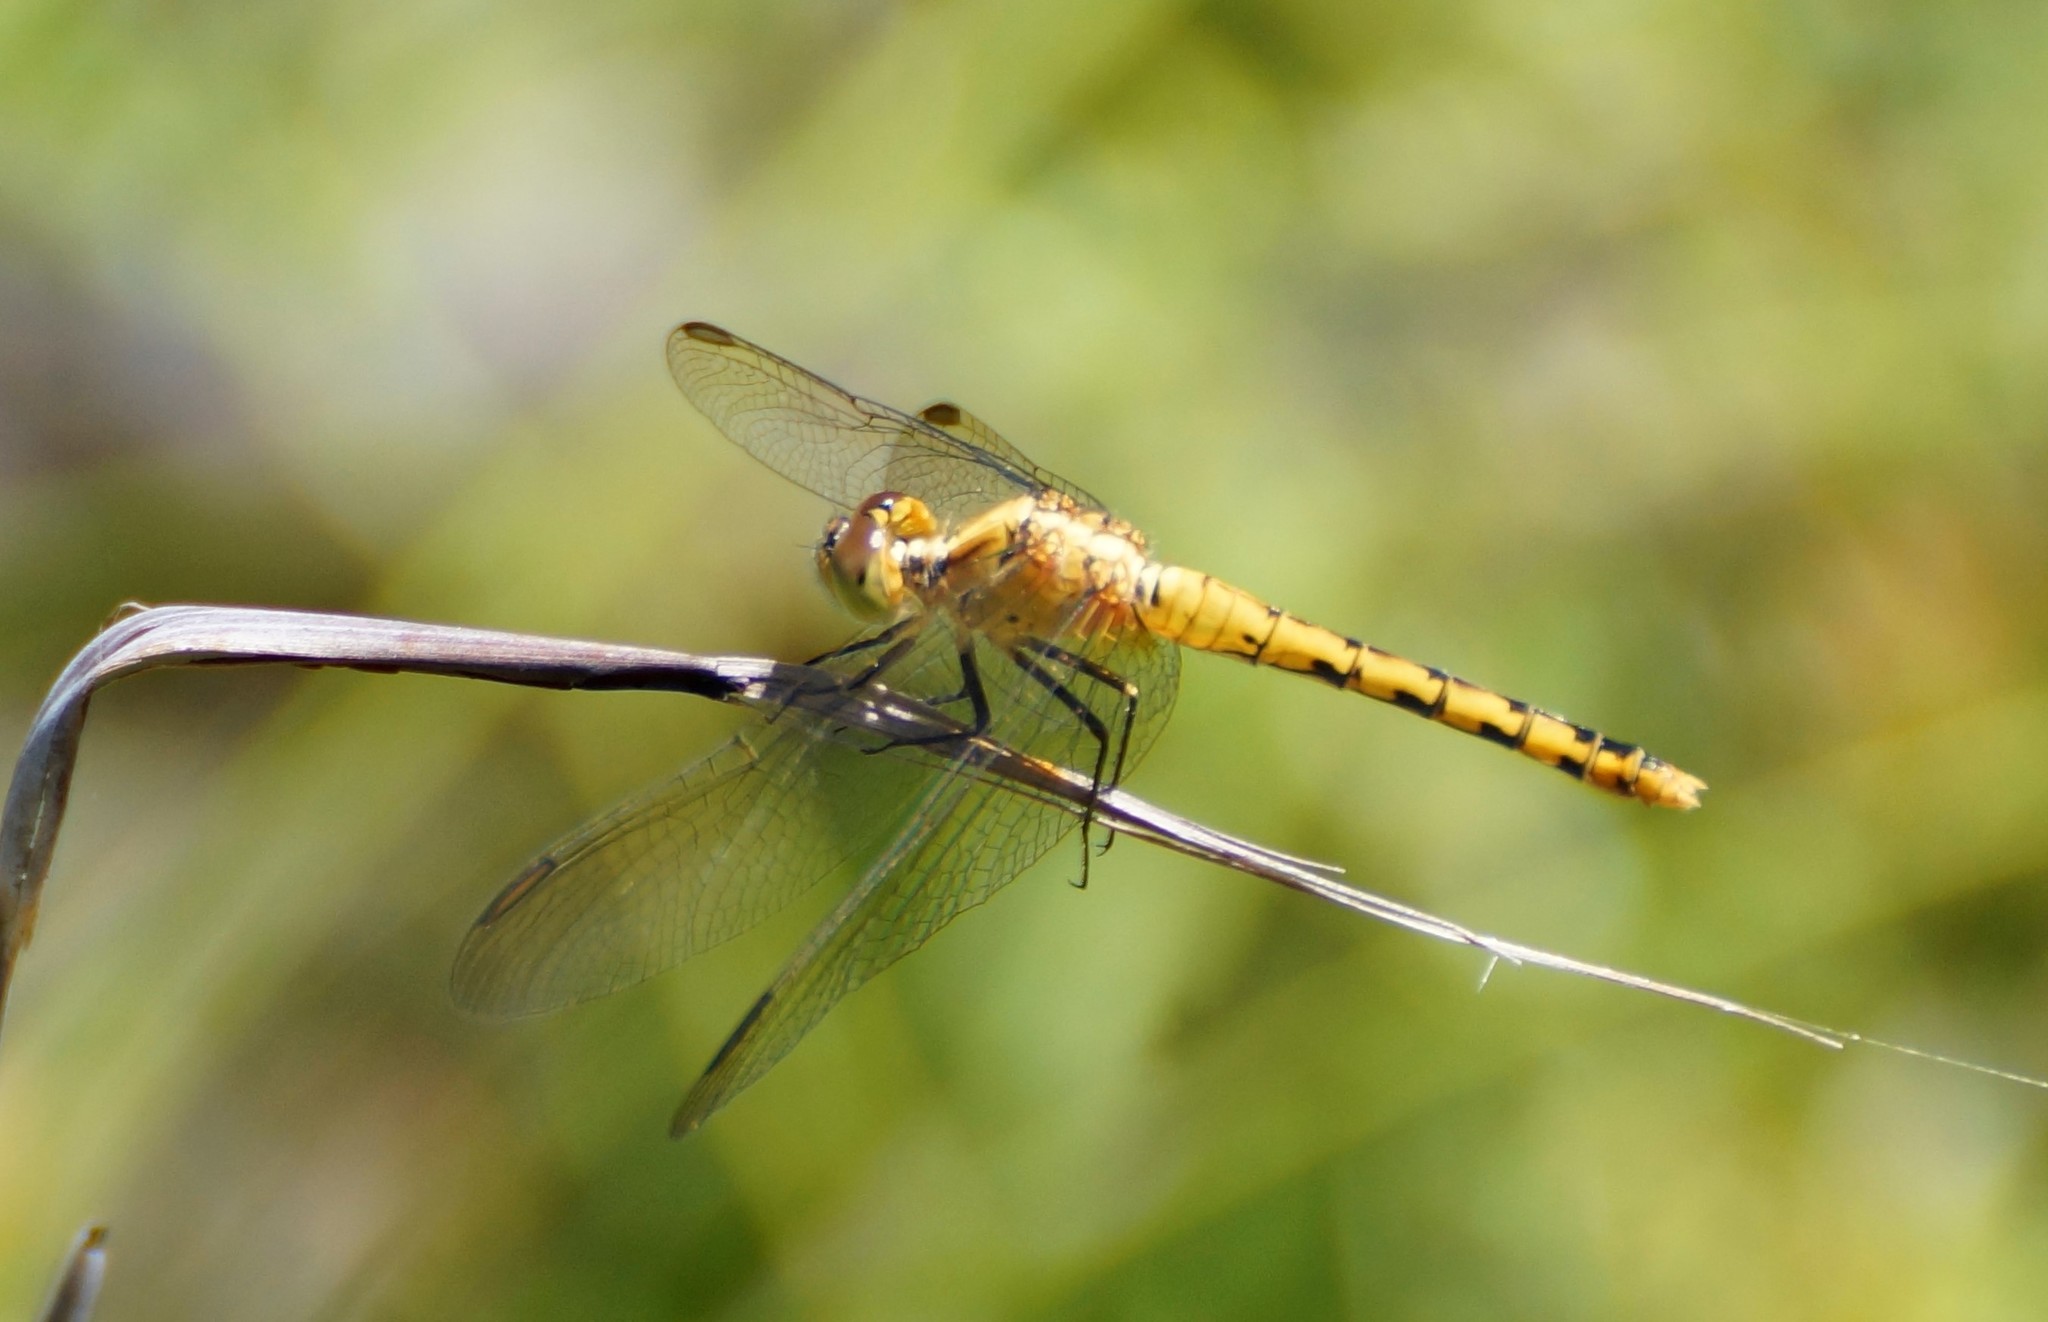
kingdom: Animalia
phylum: Arthropoda
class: Insecta
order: Odonata
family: Libellulidae
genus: Diplacodes
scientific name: Diplacodes melanopsis
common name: Black-faced percher
